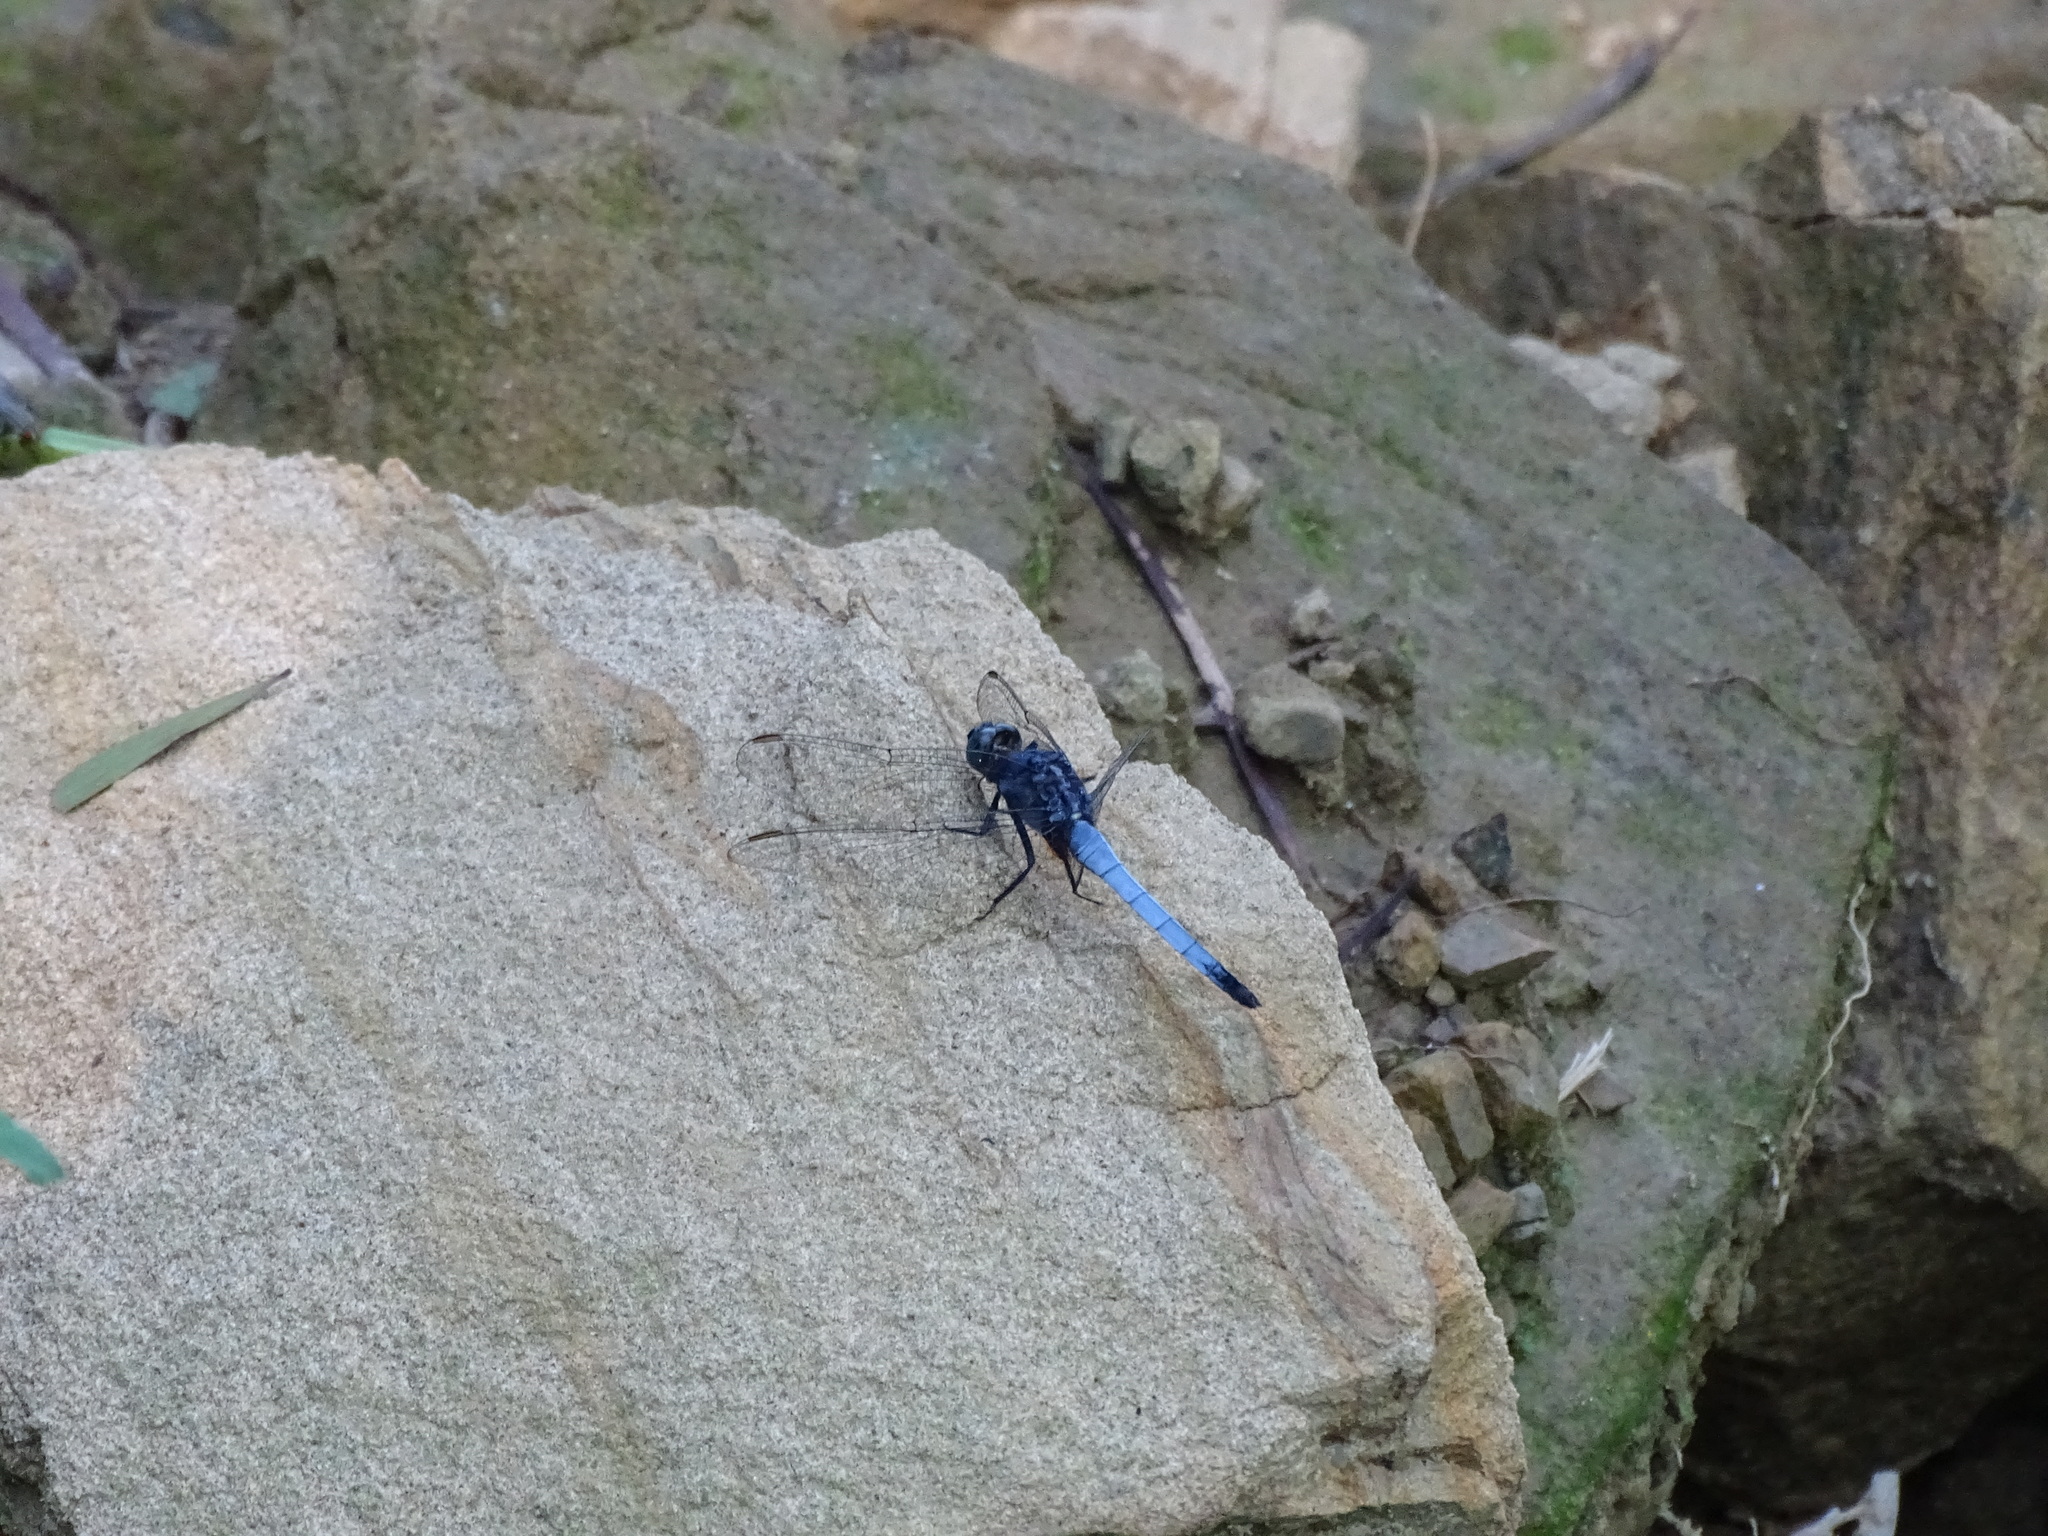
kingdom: Animalia
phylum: Arthropoda
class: Insecta
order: Odonata
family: Libellulidae
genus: Orthetrum
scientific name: Orthetrum glaucum
